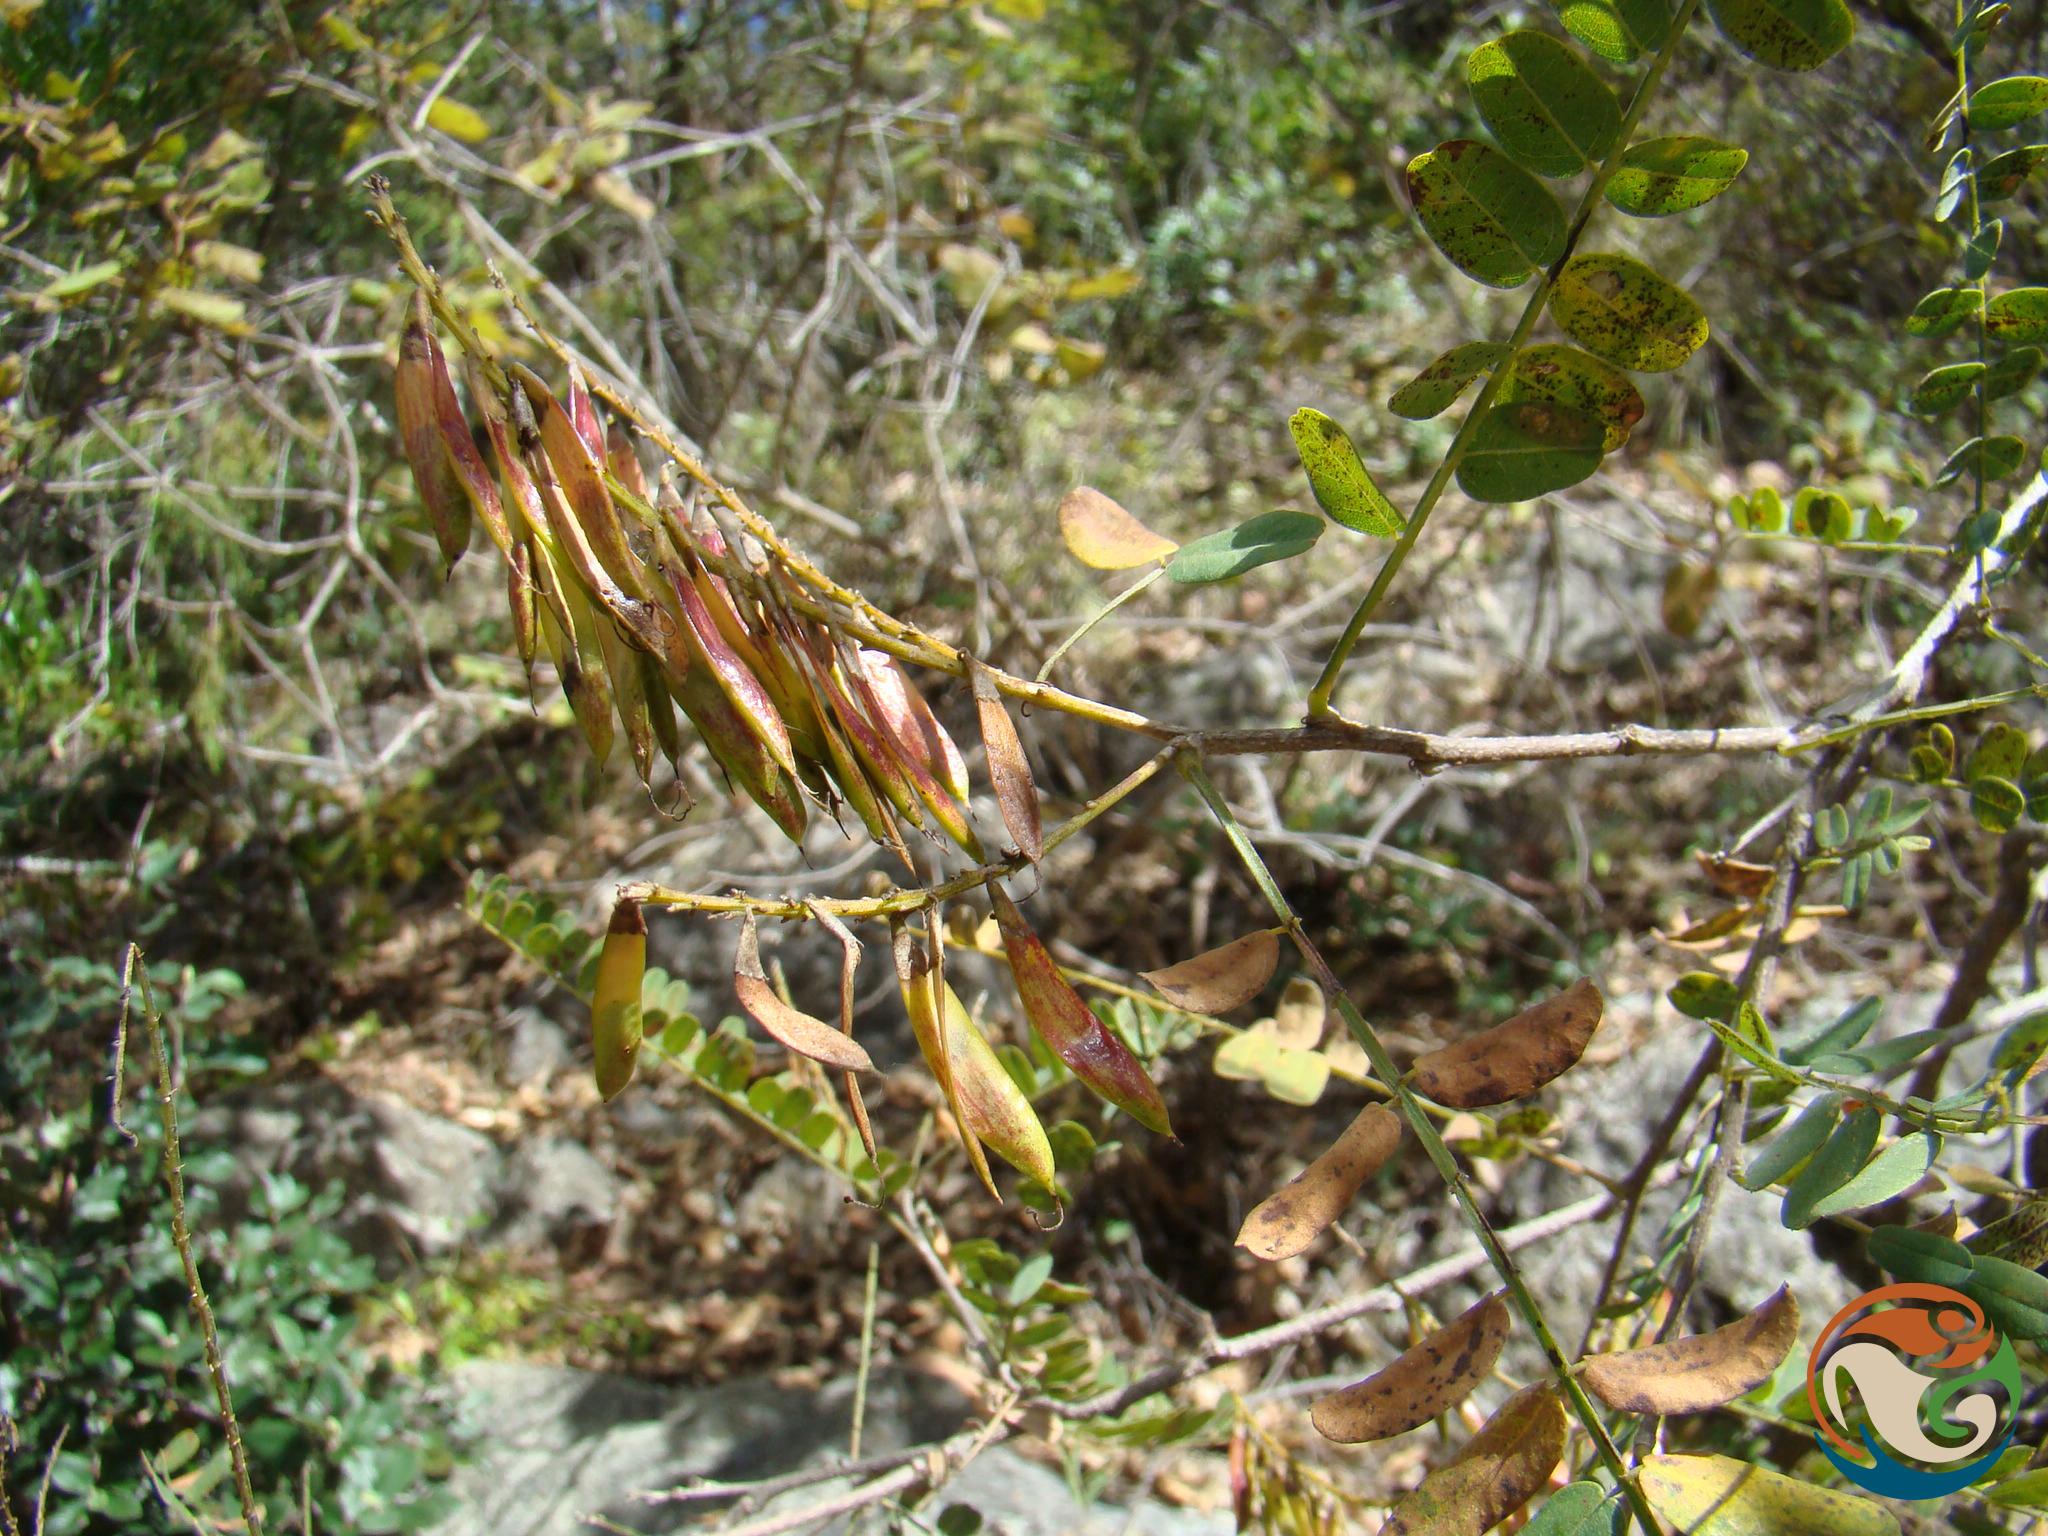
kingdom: Plantae
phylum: Tracheophyta
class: Magnoliopsida
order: Fabales
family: Fabaceae
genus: Eysenhardtia
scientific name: Eysenhardtia polystachya
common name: Kidneywood
